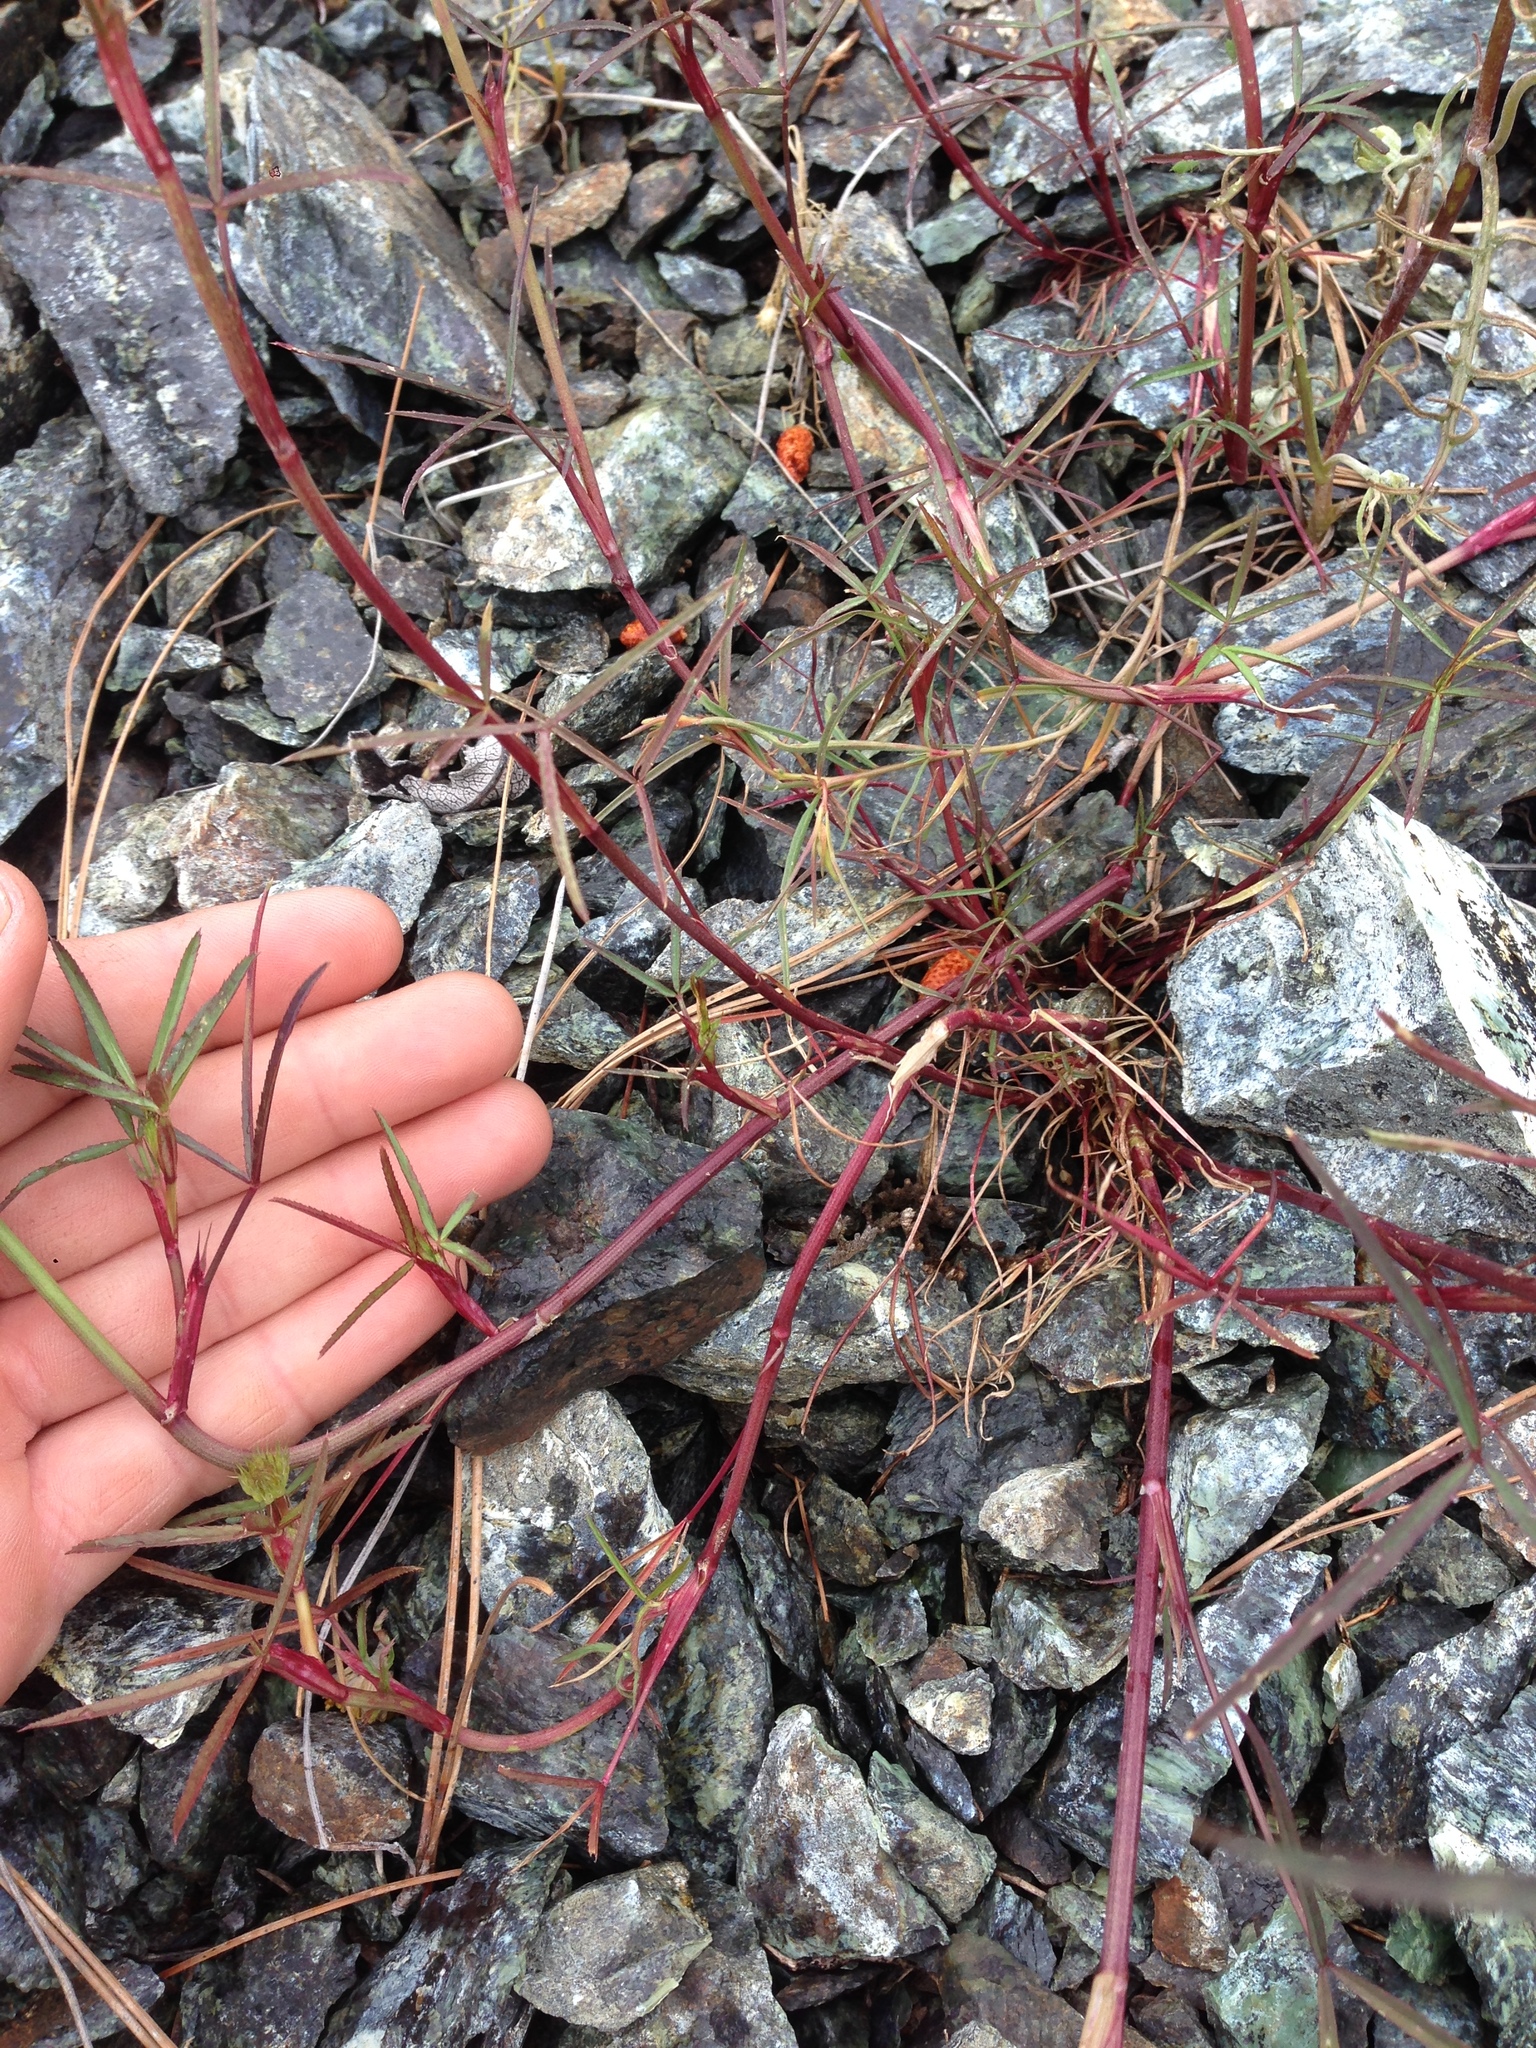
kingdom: Plantae
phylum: Tracheophyta
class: Magnoliopsida
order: Fabales
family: Fabaceae
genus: Trifolium
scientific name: Trifolium willdenovii
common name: Tomcat clover
